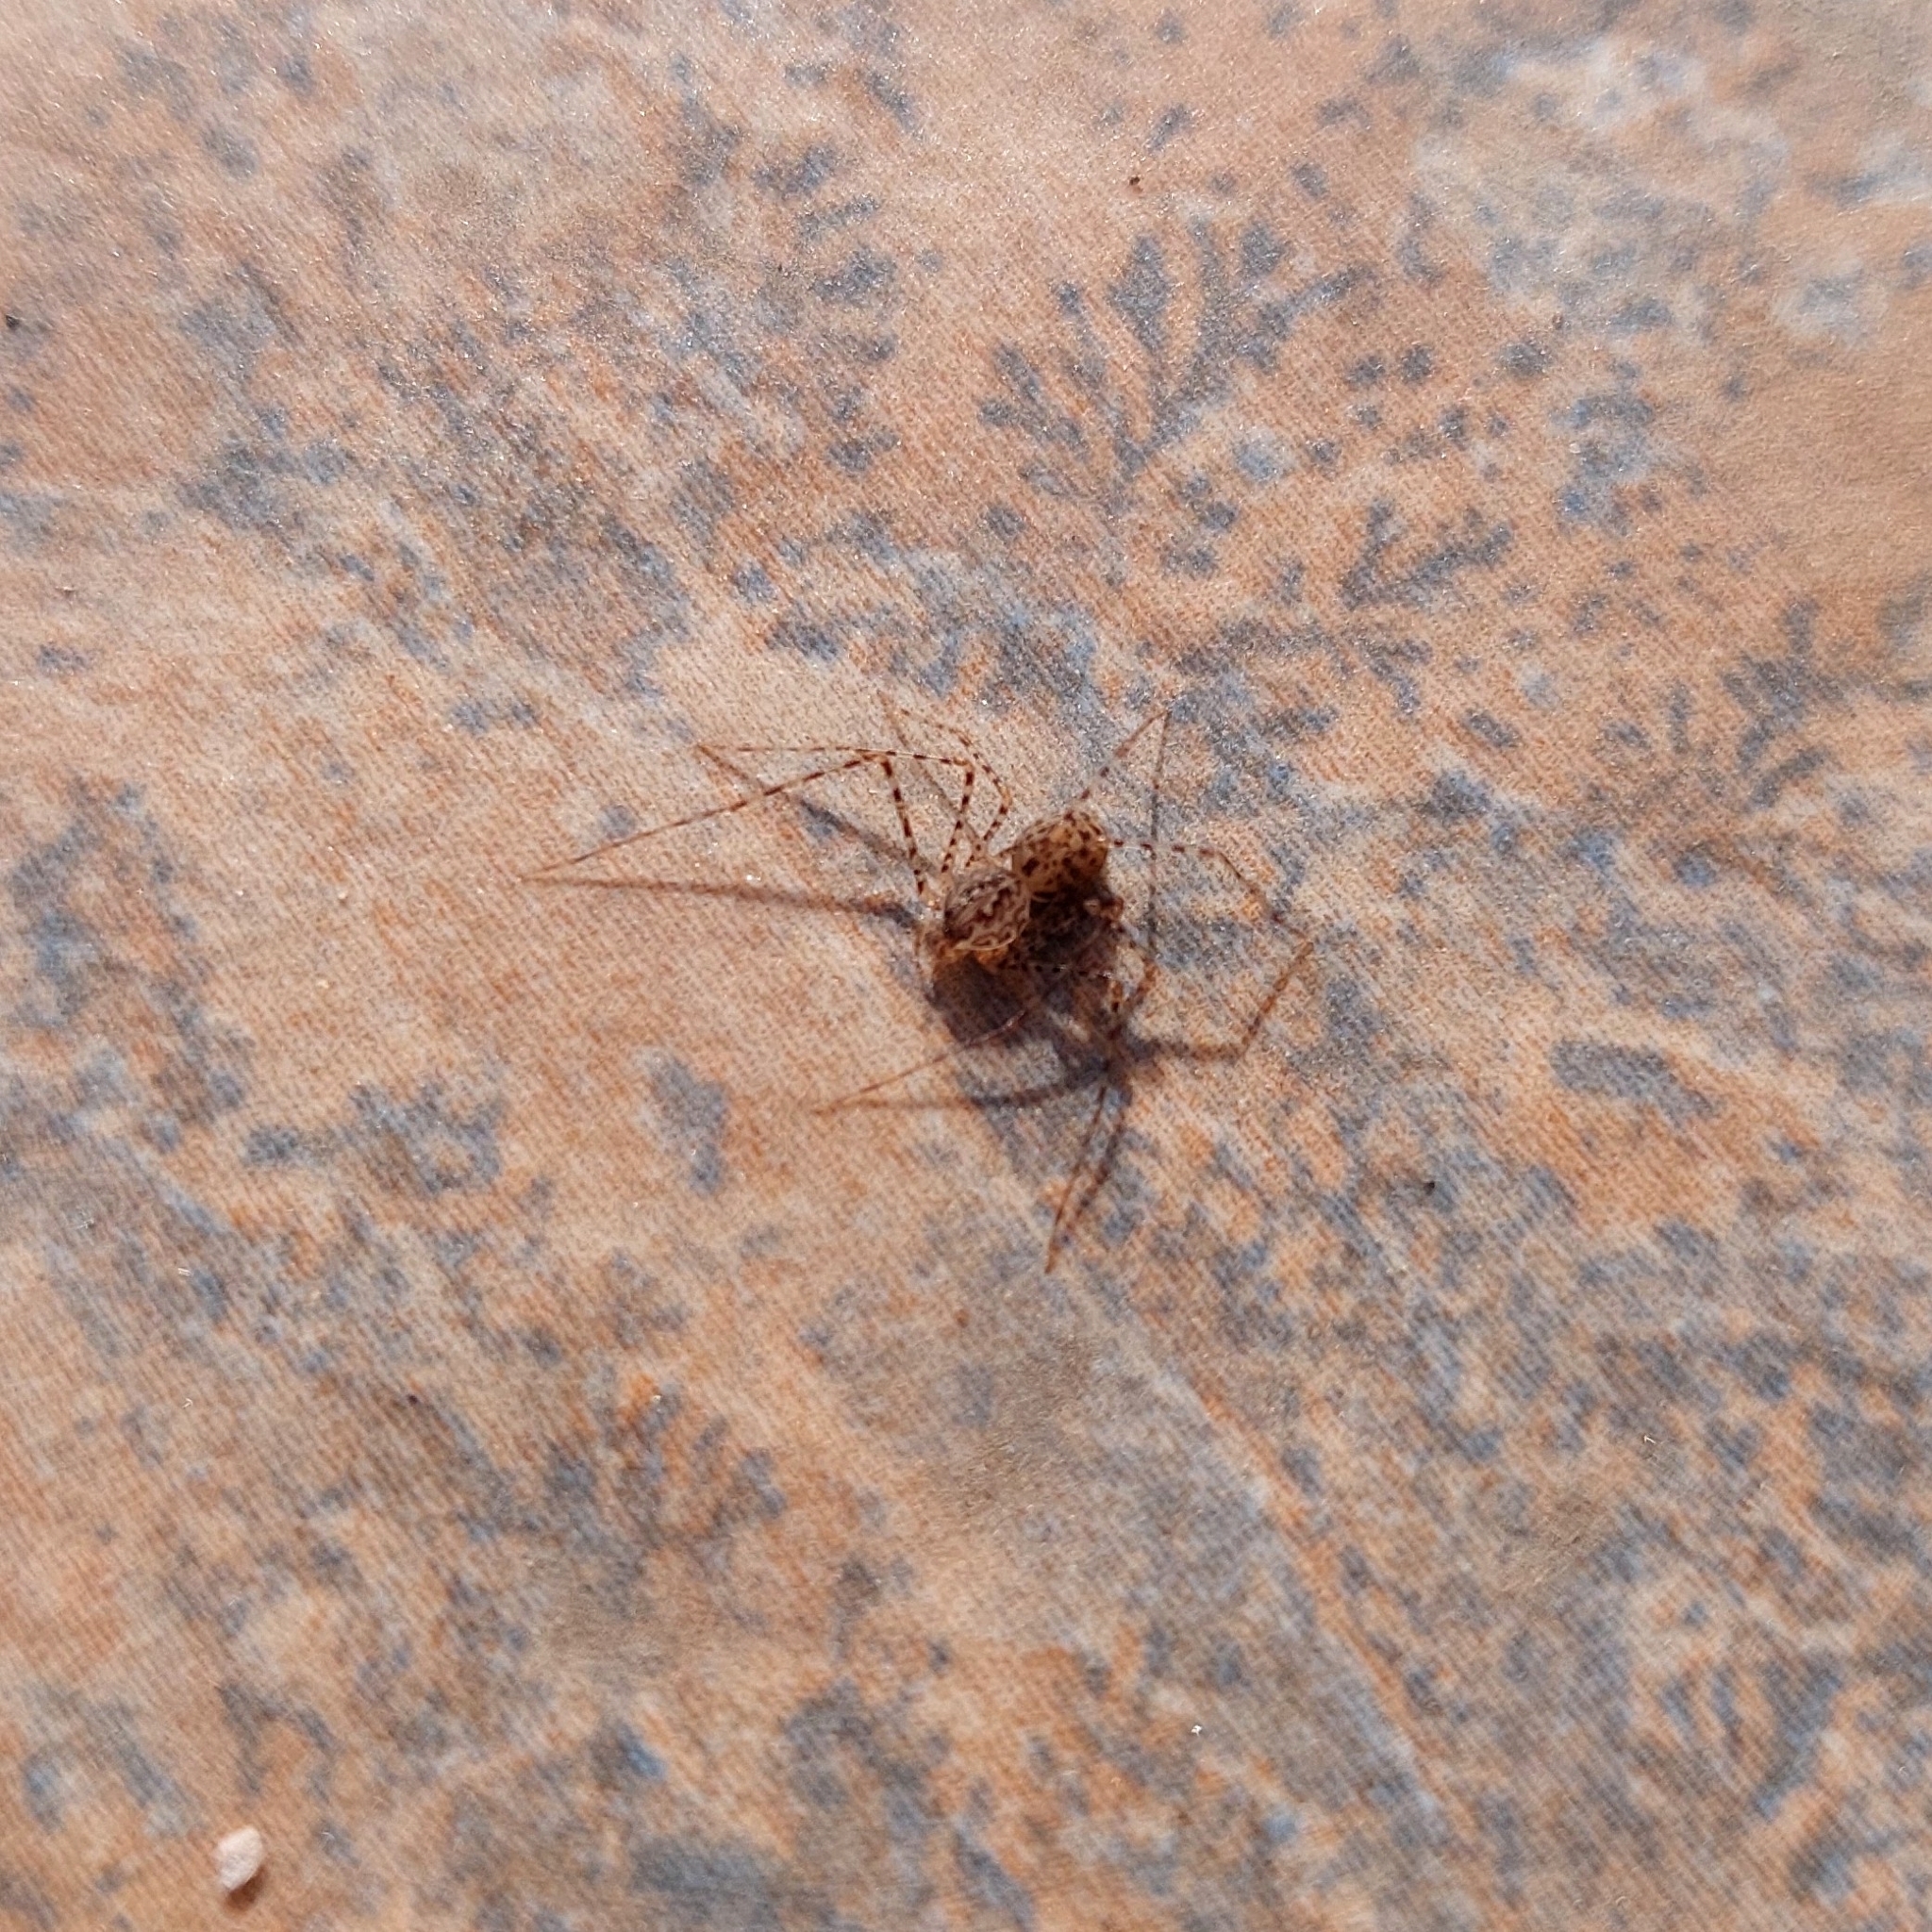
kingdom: Animalia
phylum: Arthropoda
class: Arachnida
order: Araneae
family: Scytodidae
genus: Scytodes
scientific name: Scytodes globula
